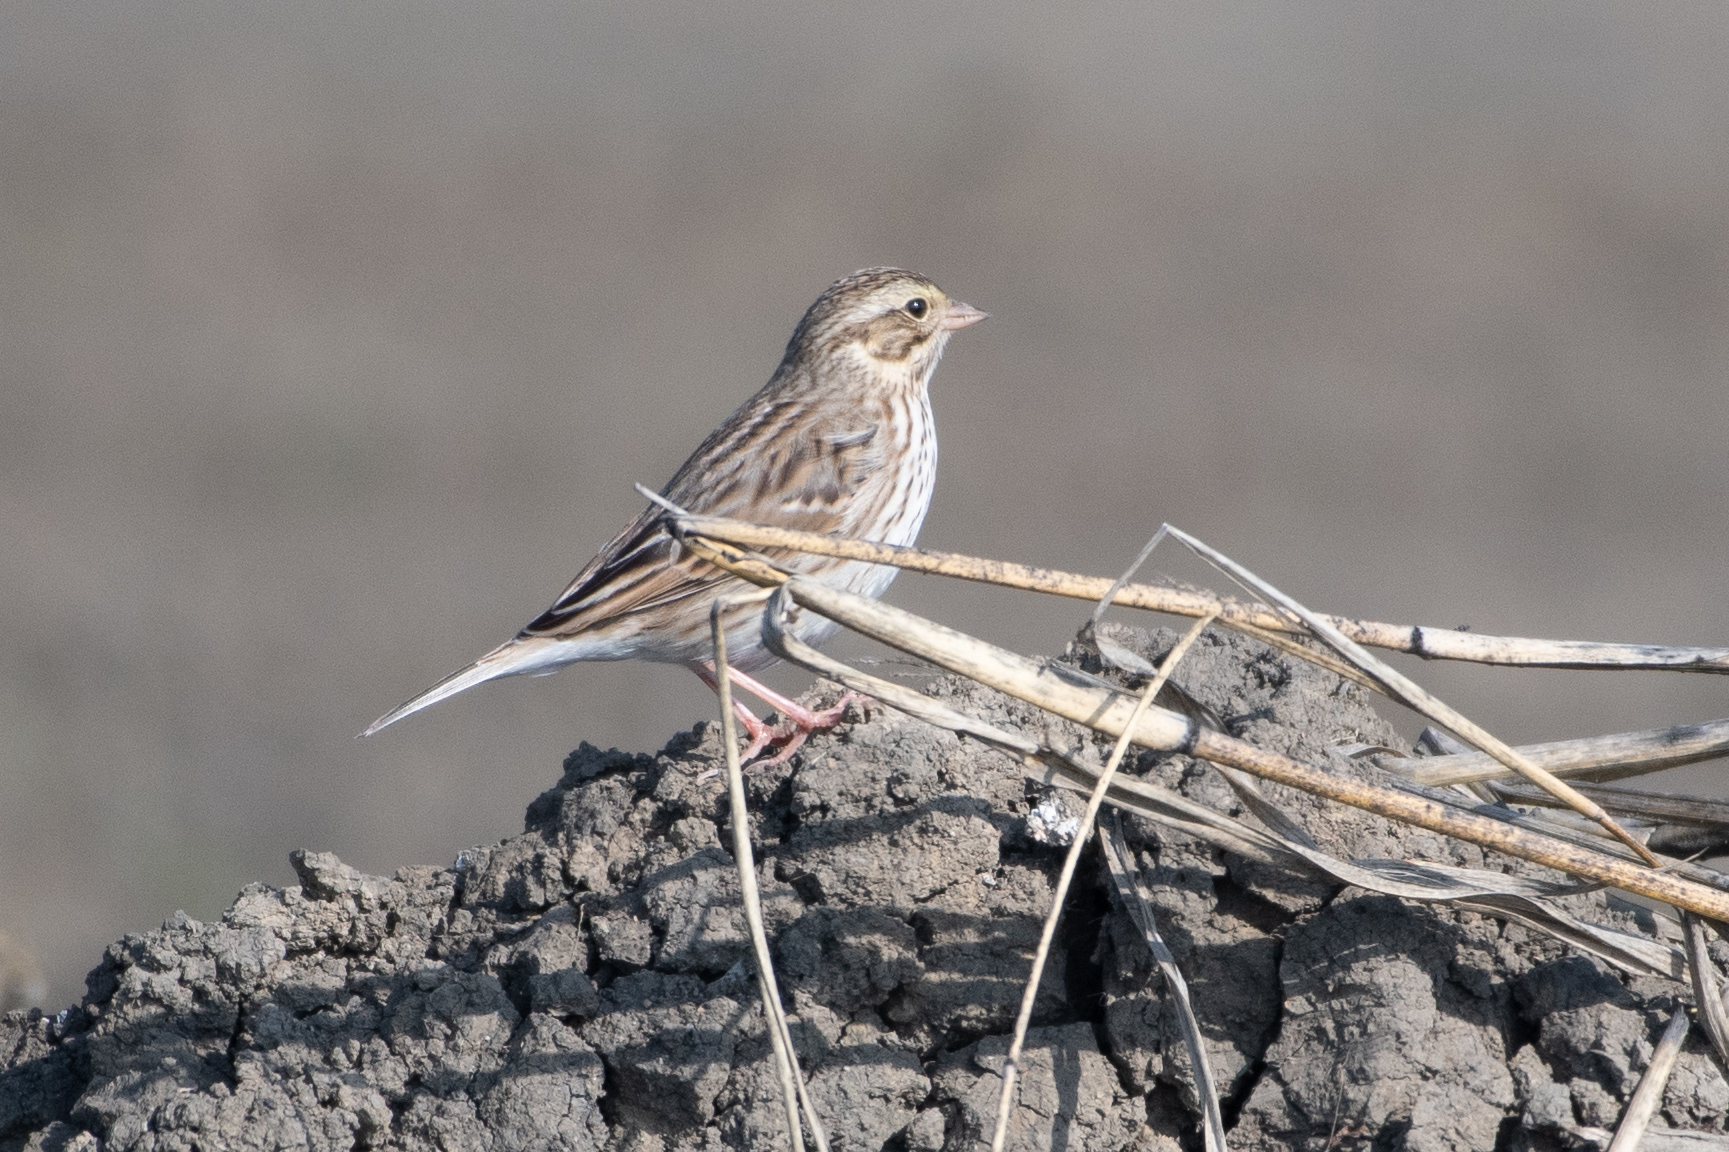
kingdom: Animalia
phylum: Chordata
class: Aves
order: Passeriformes
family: Passerellidae
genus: Passerculus
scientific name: Passerculus sandwichensis
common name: Savannah sparrow
